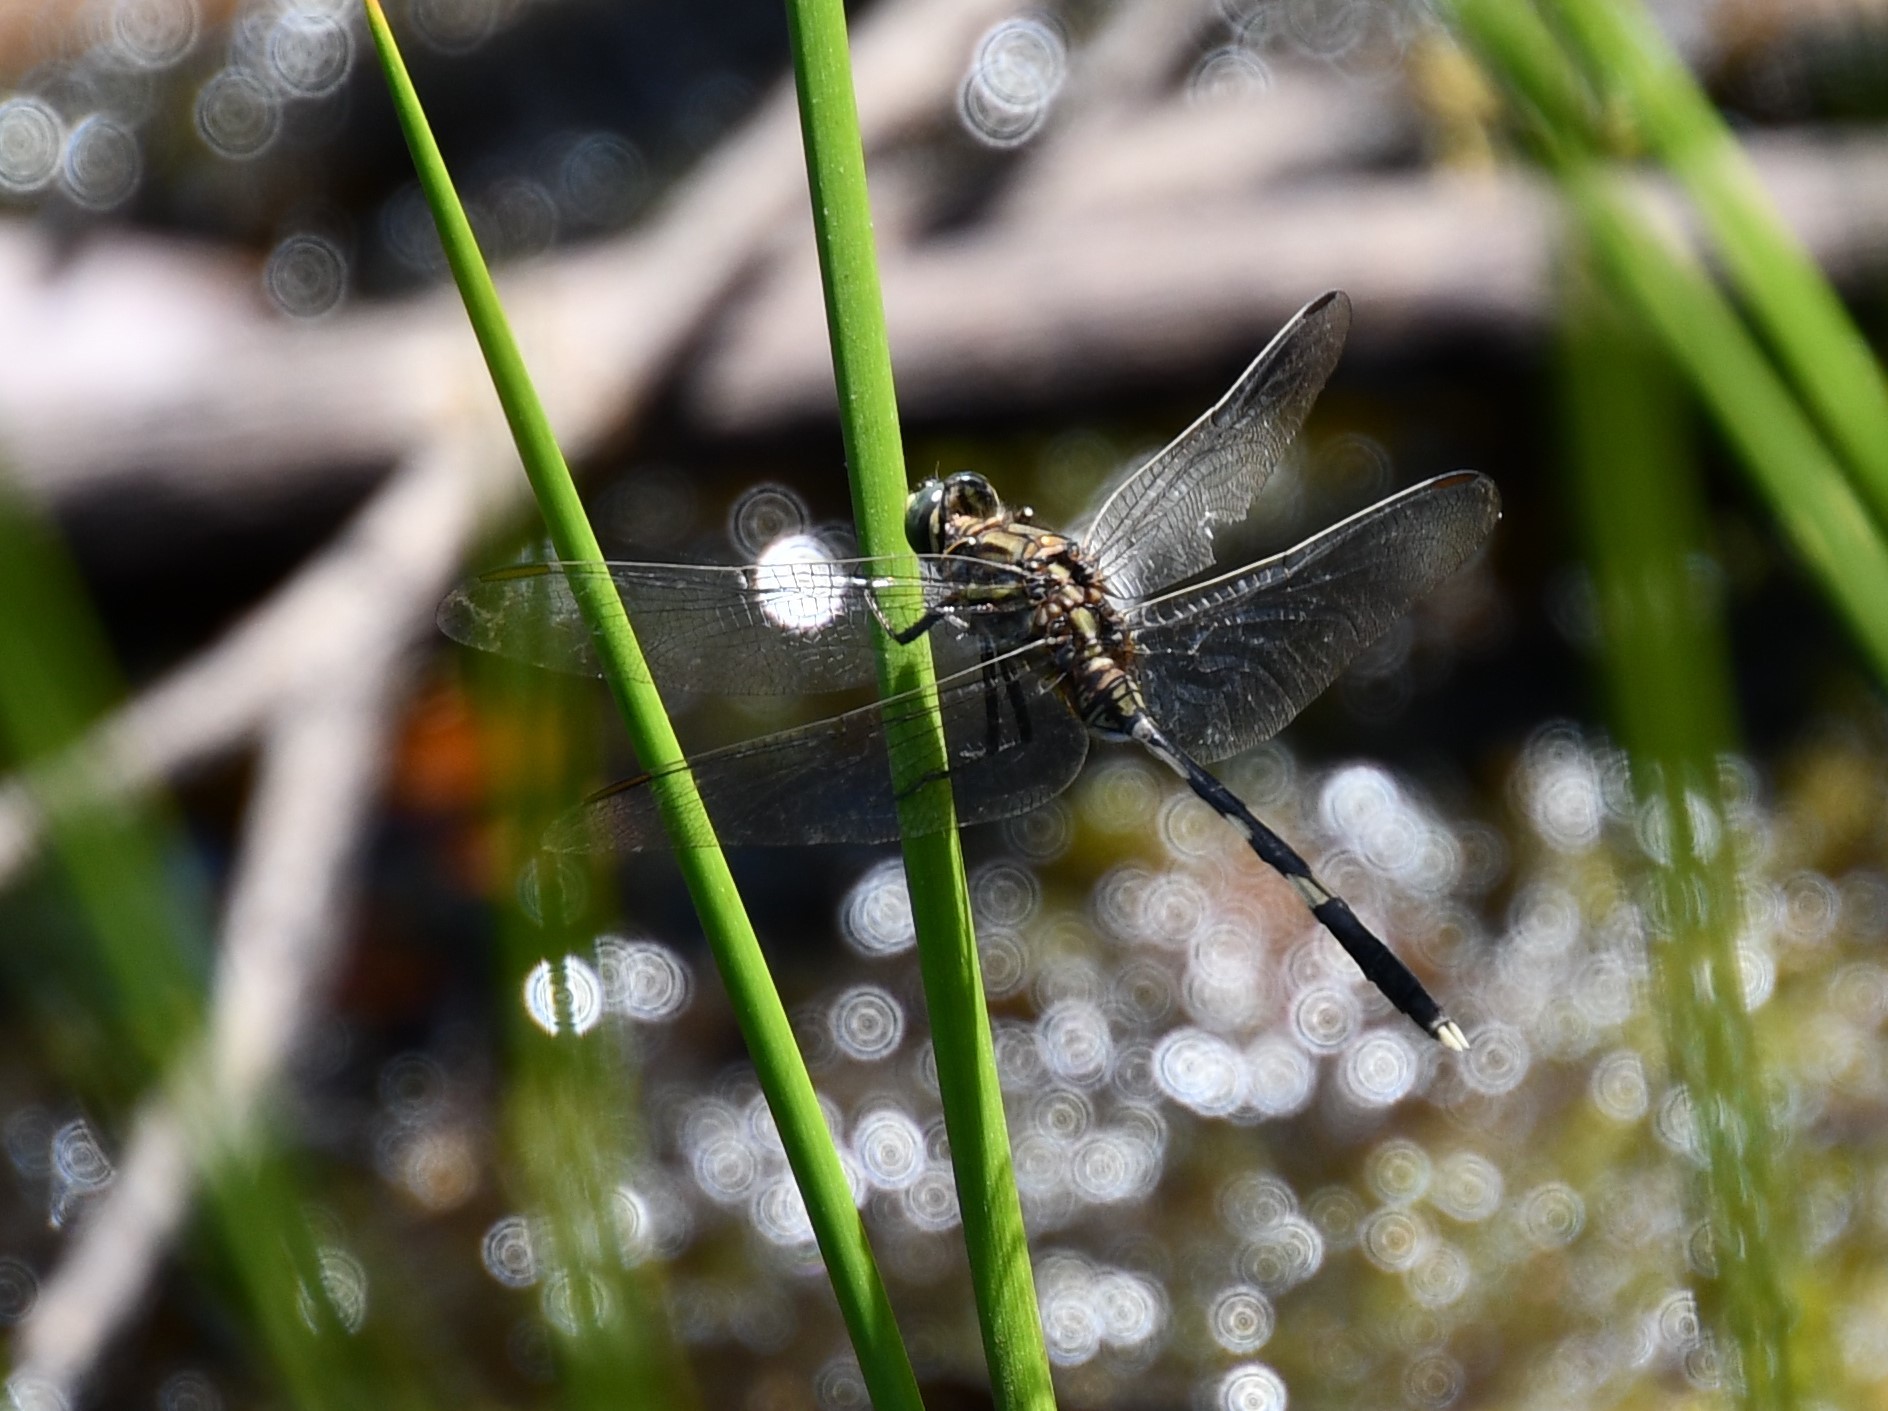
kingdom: Animalia
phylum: Arthropoda
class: Insecta
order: Odonata
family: Libellulidae
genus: Orthetrum
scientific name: Orthetrum sabina
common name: Slender skimmer
